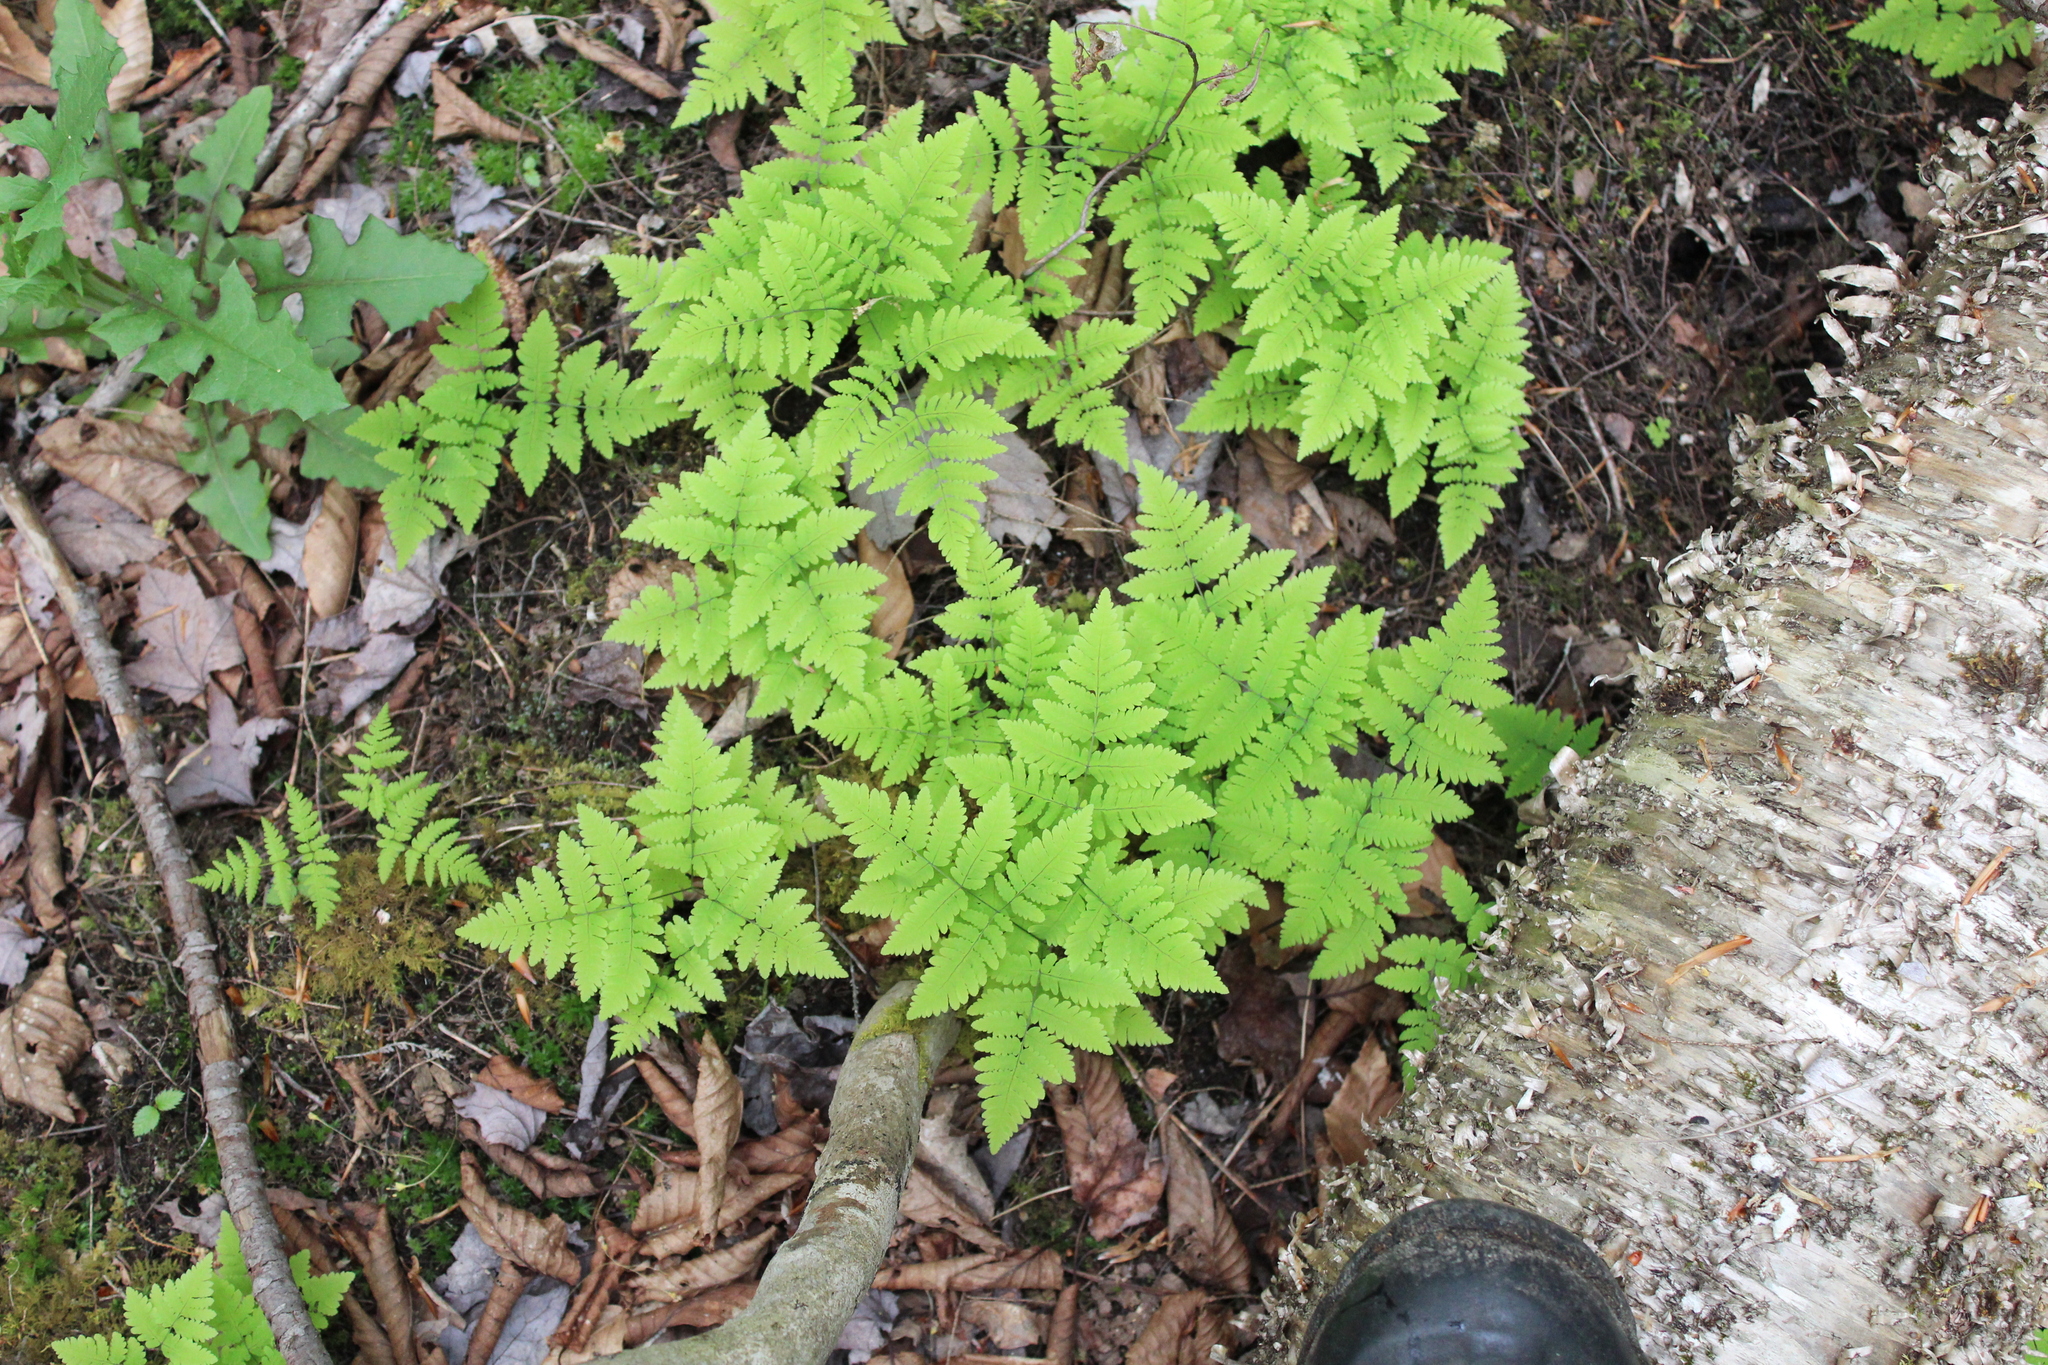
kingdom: Plantae
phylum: Tracheophyta
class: Polypodiopsida
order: Polypodiales
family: Cystopteridaceae
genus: Gymnocarpium
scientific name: Gymnocarpium dryopteris
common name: Oak fern
